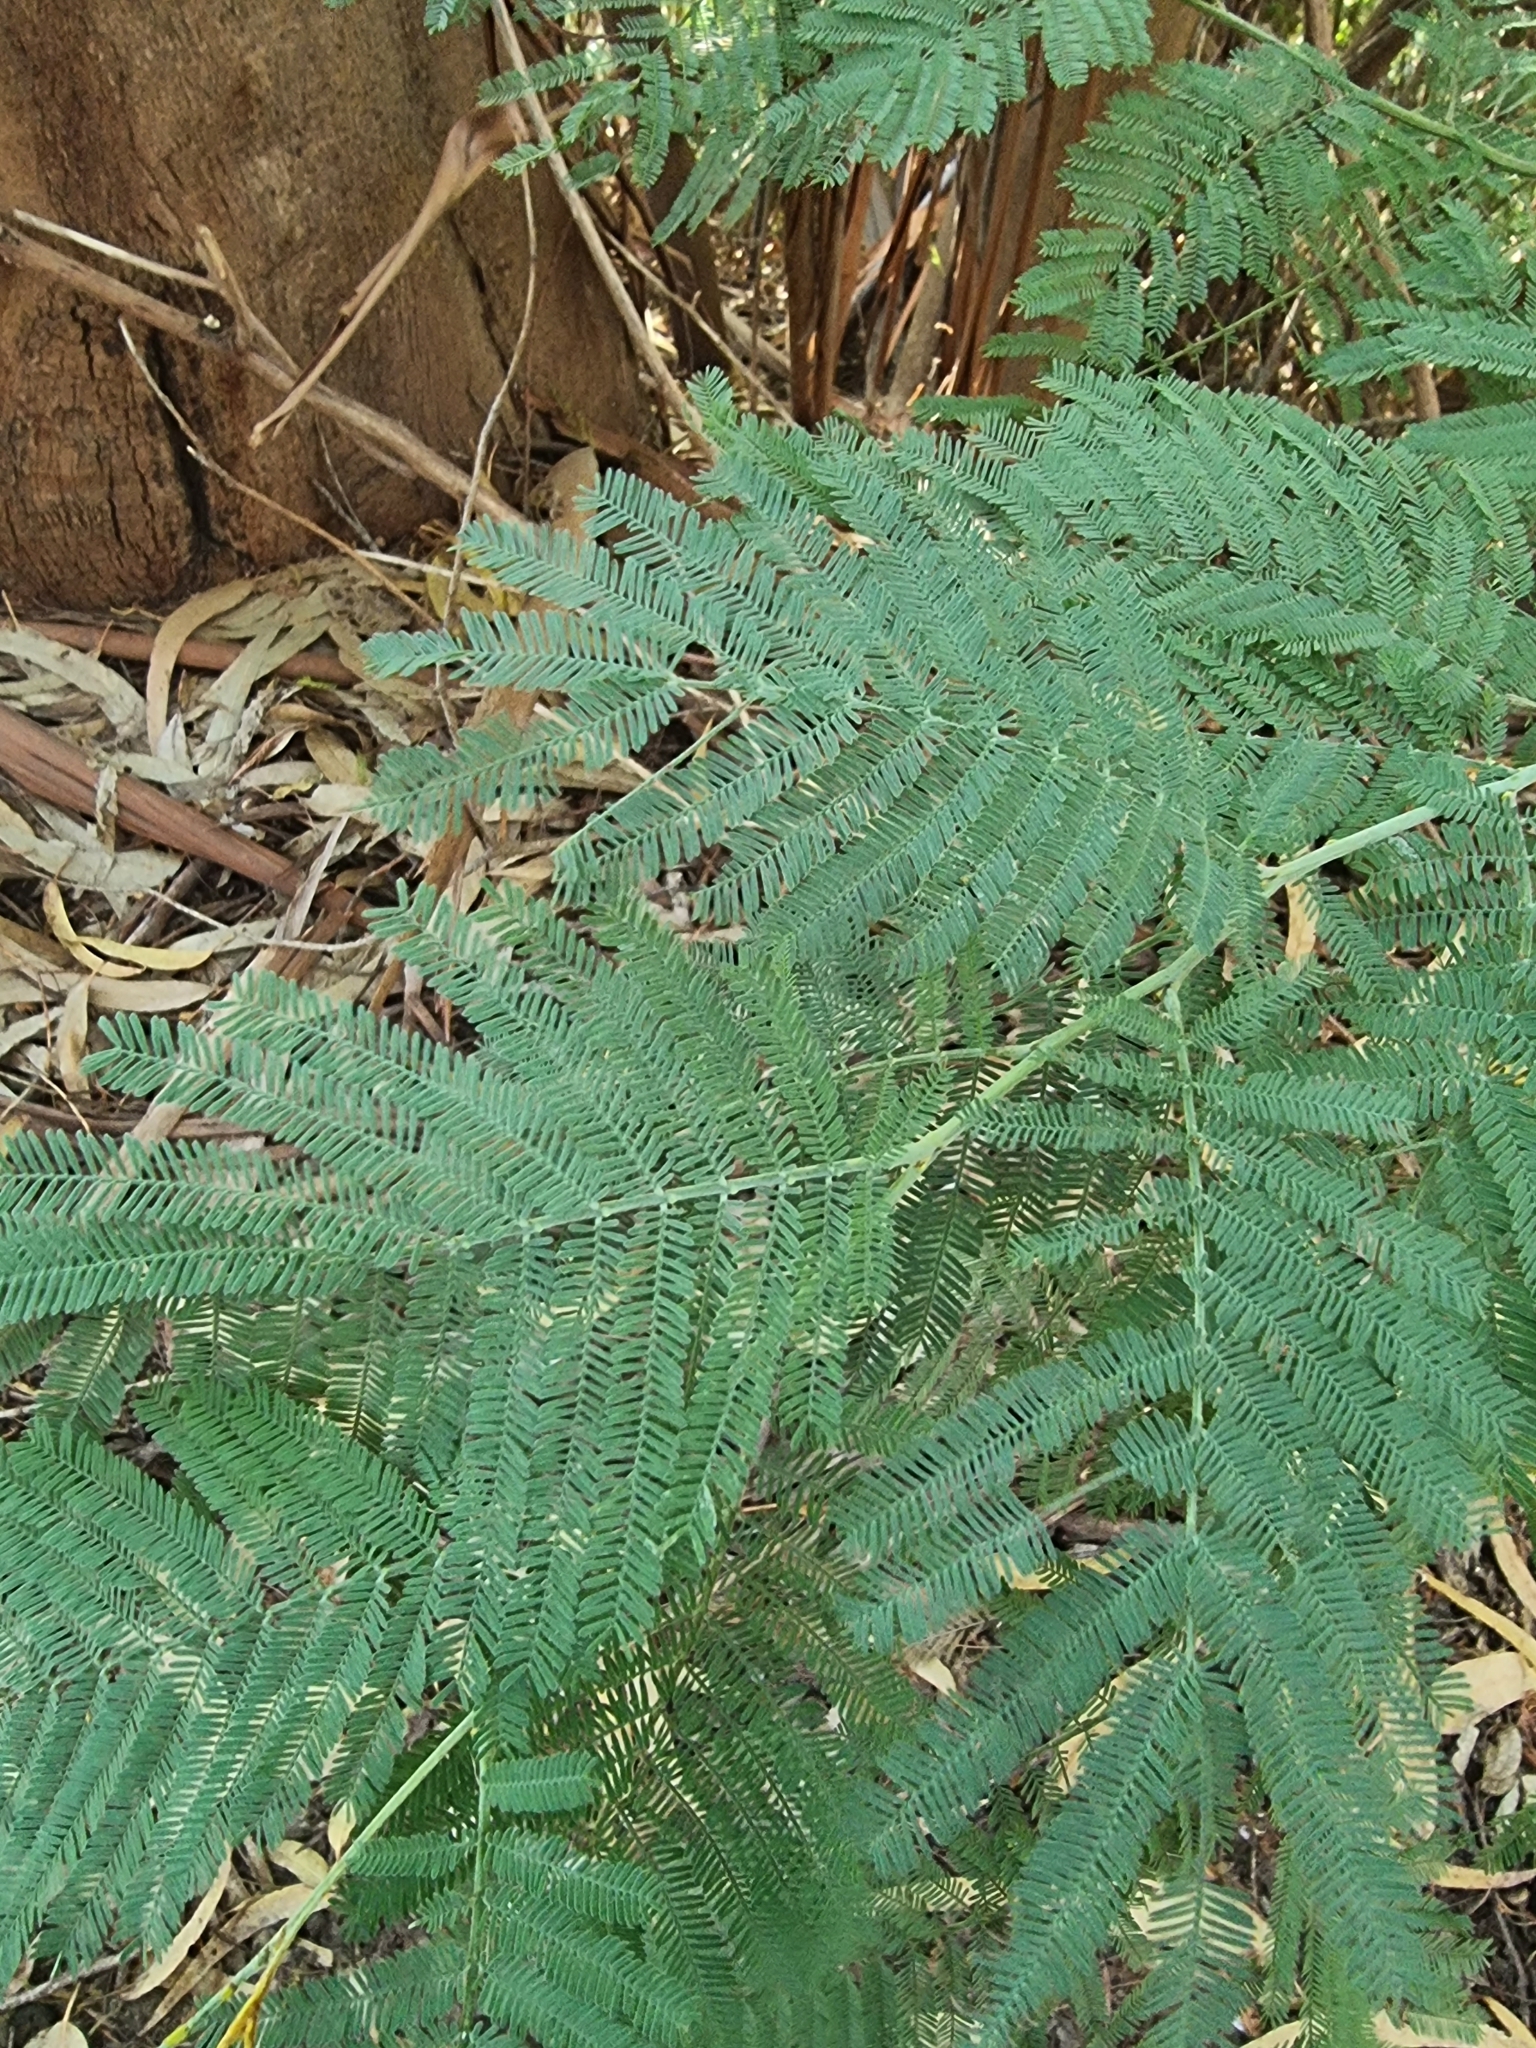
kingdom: Plantae
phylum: Tracheophyta
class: Magnoliopsida
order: Fabales
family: Fabaceae
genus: Acacia
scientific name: Acacia mearnsii
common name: Black wattle
